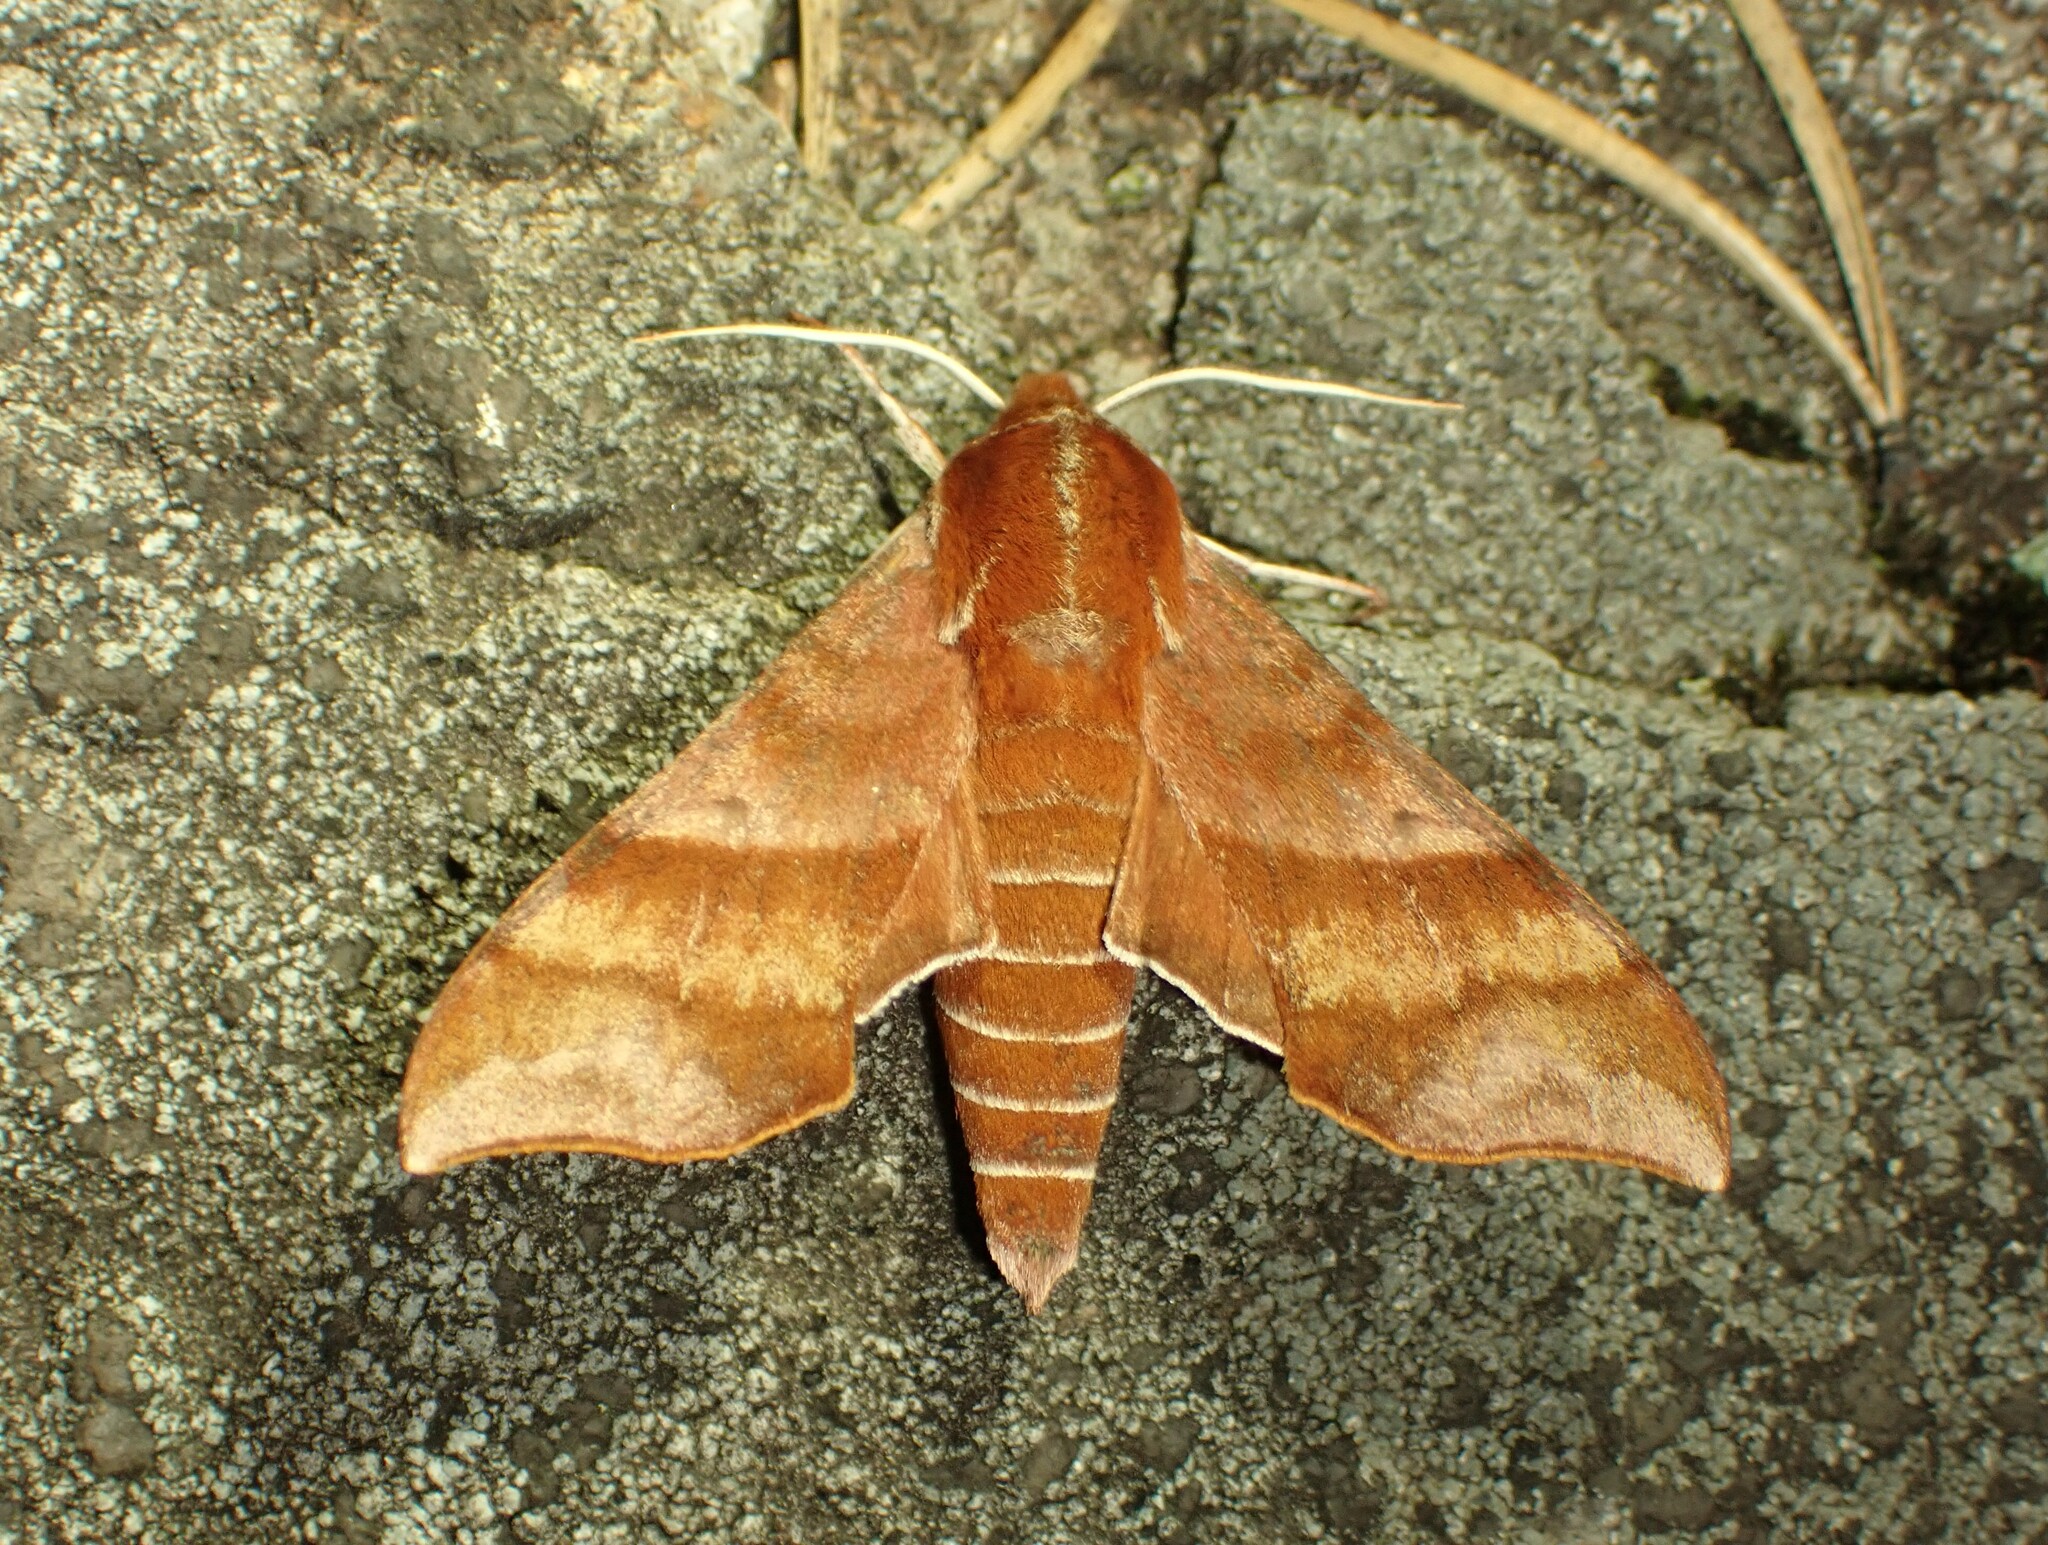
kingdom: Animalia
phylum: Arthropoda
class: Insecta
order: Lepidoptera
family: Sphingidae
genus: Darapsa
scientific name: Darapsa choerilus
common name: Azalea sphinx
